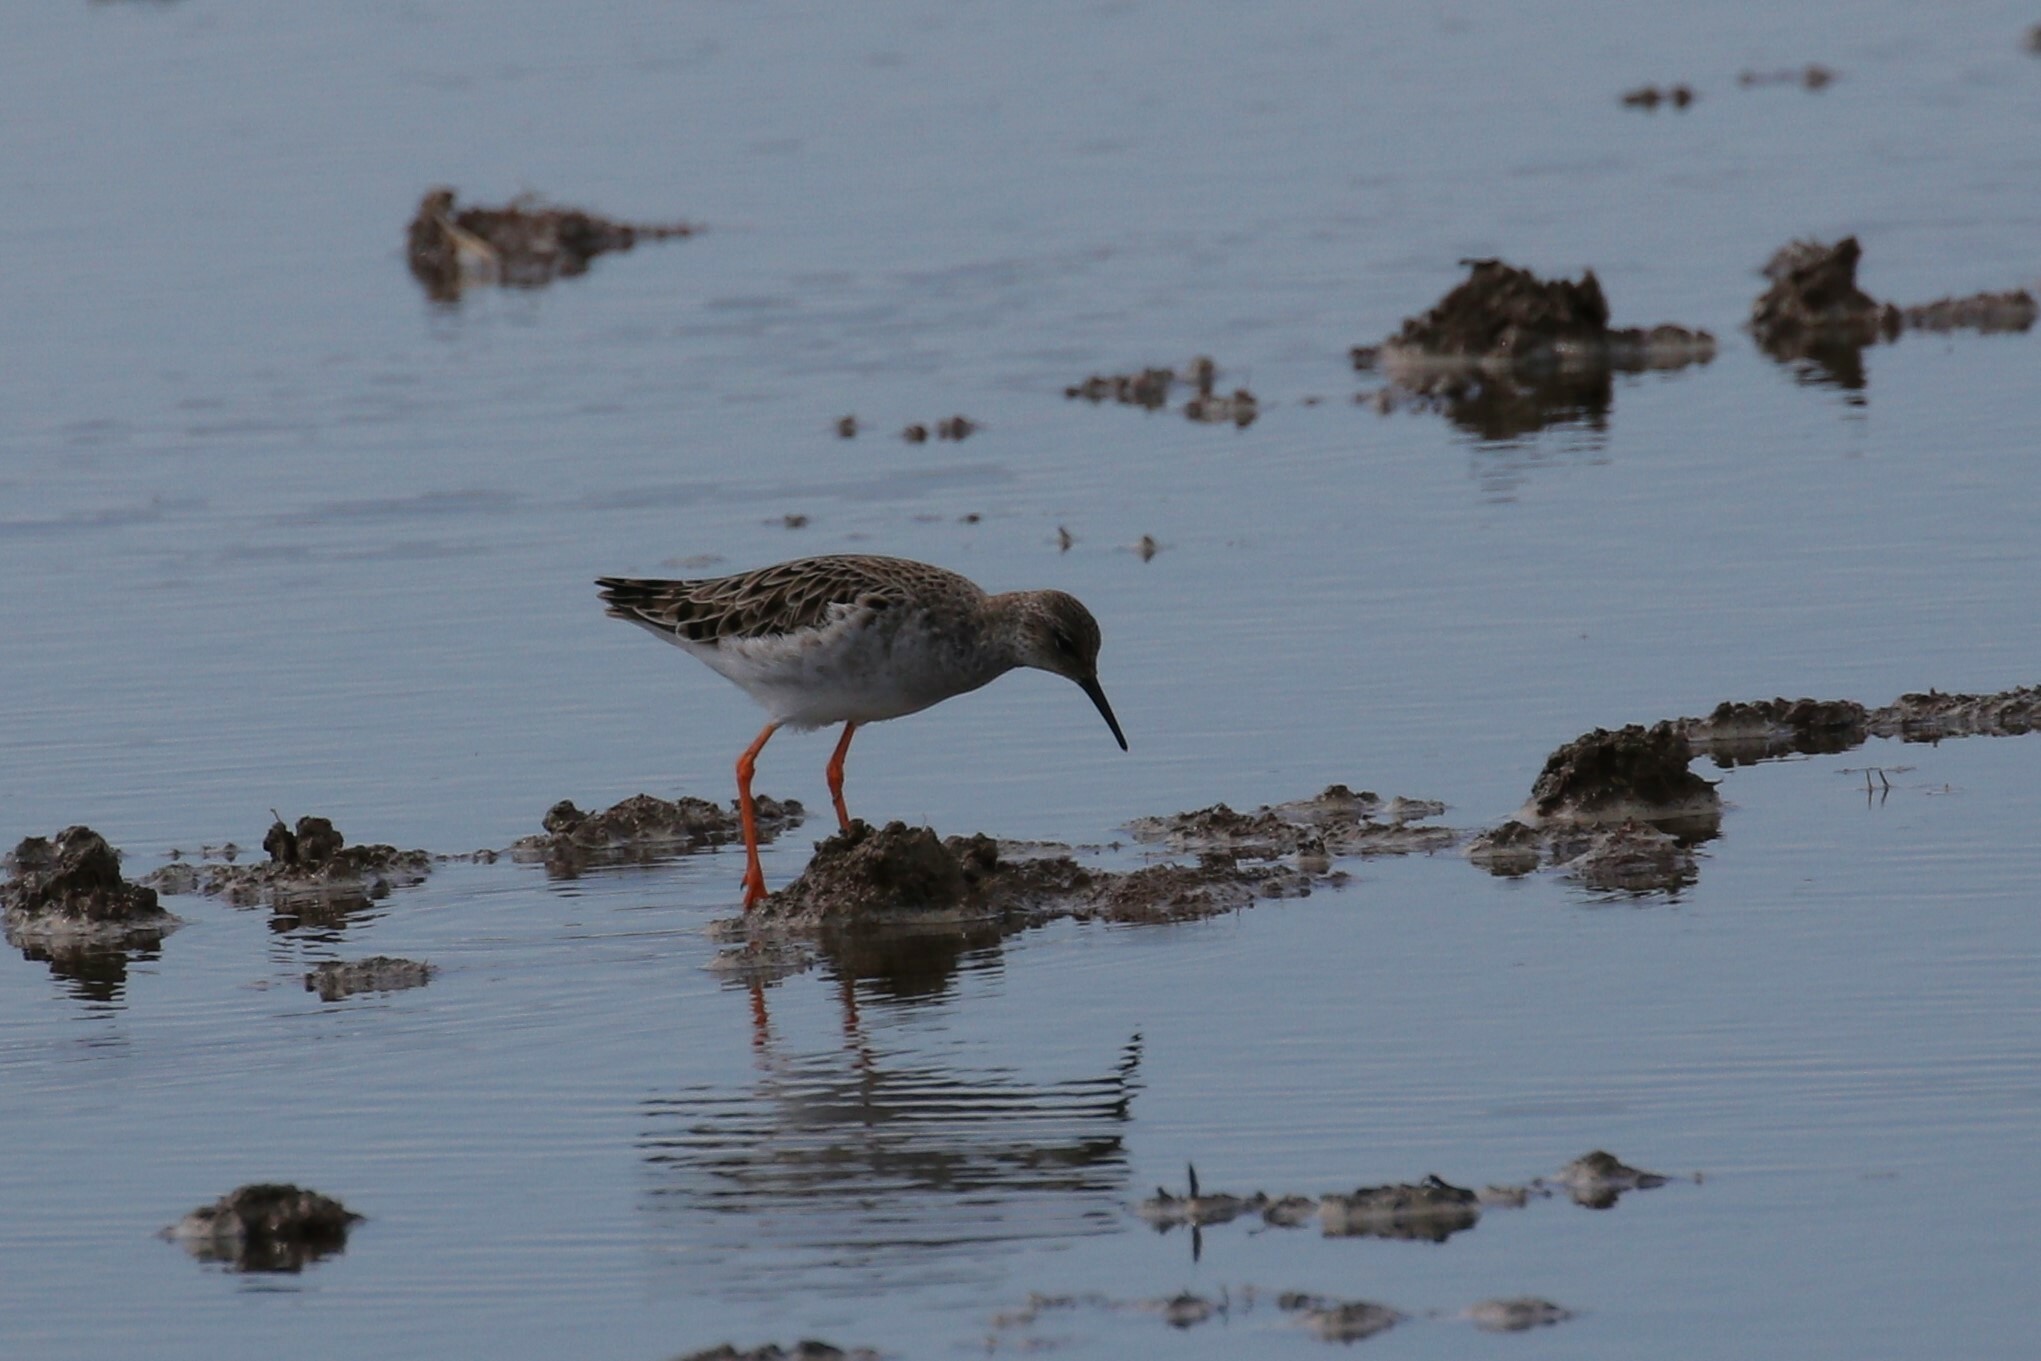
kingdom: Animalia
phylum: Chordata
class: Aves
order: Charadriiformes
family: Scolopacidae
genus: Calidris
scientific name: Calidris pugnax
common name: Ruff
